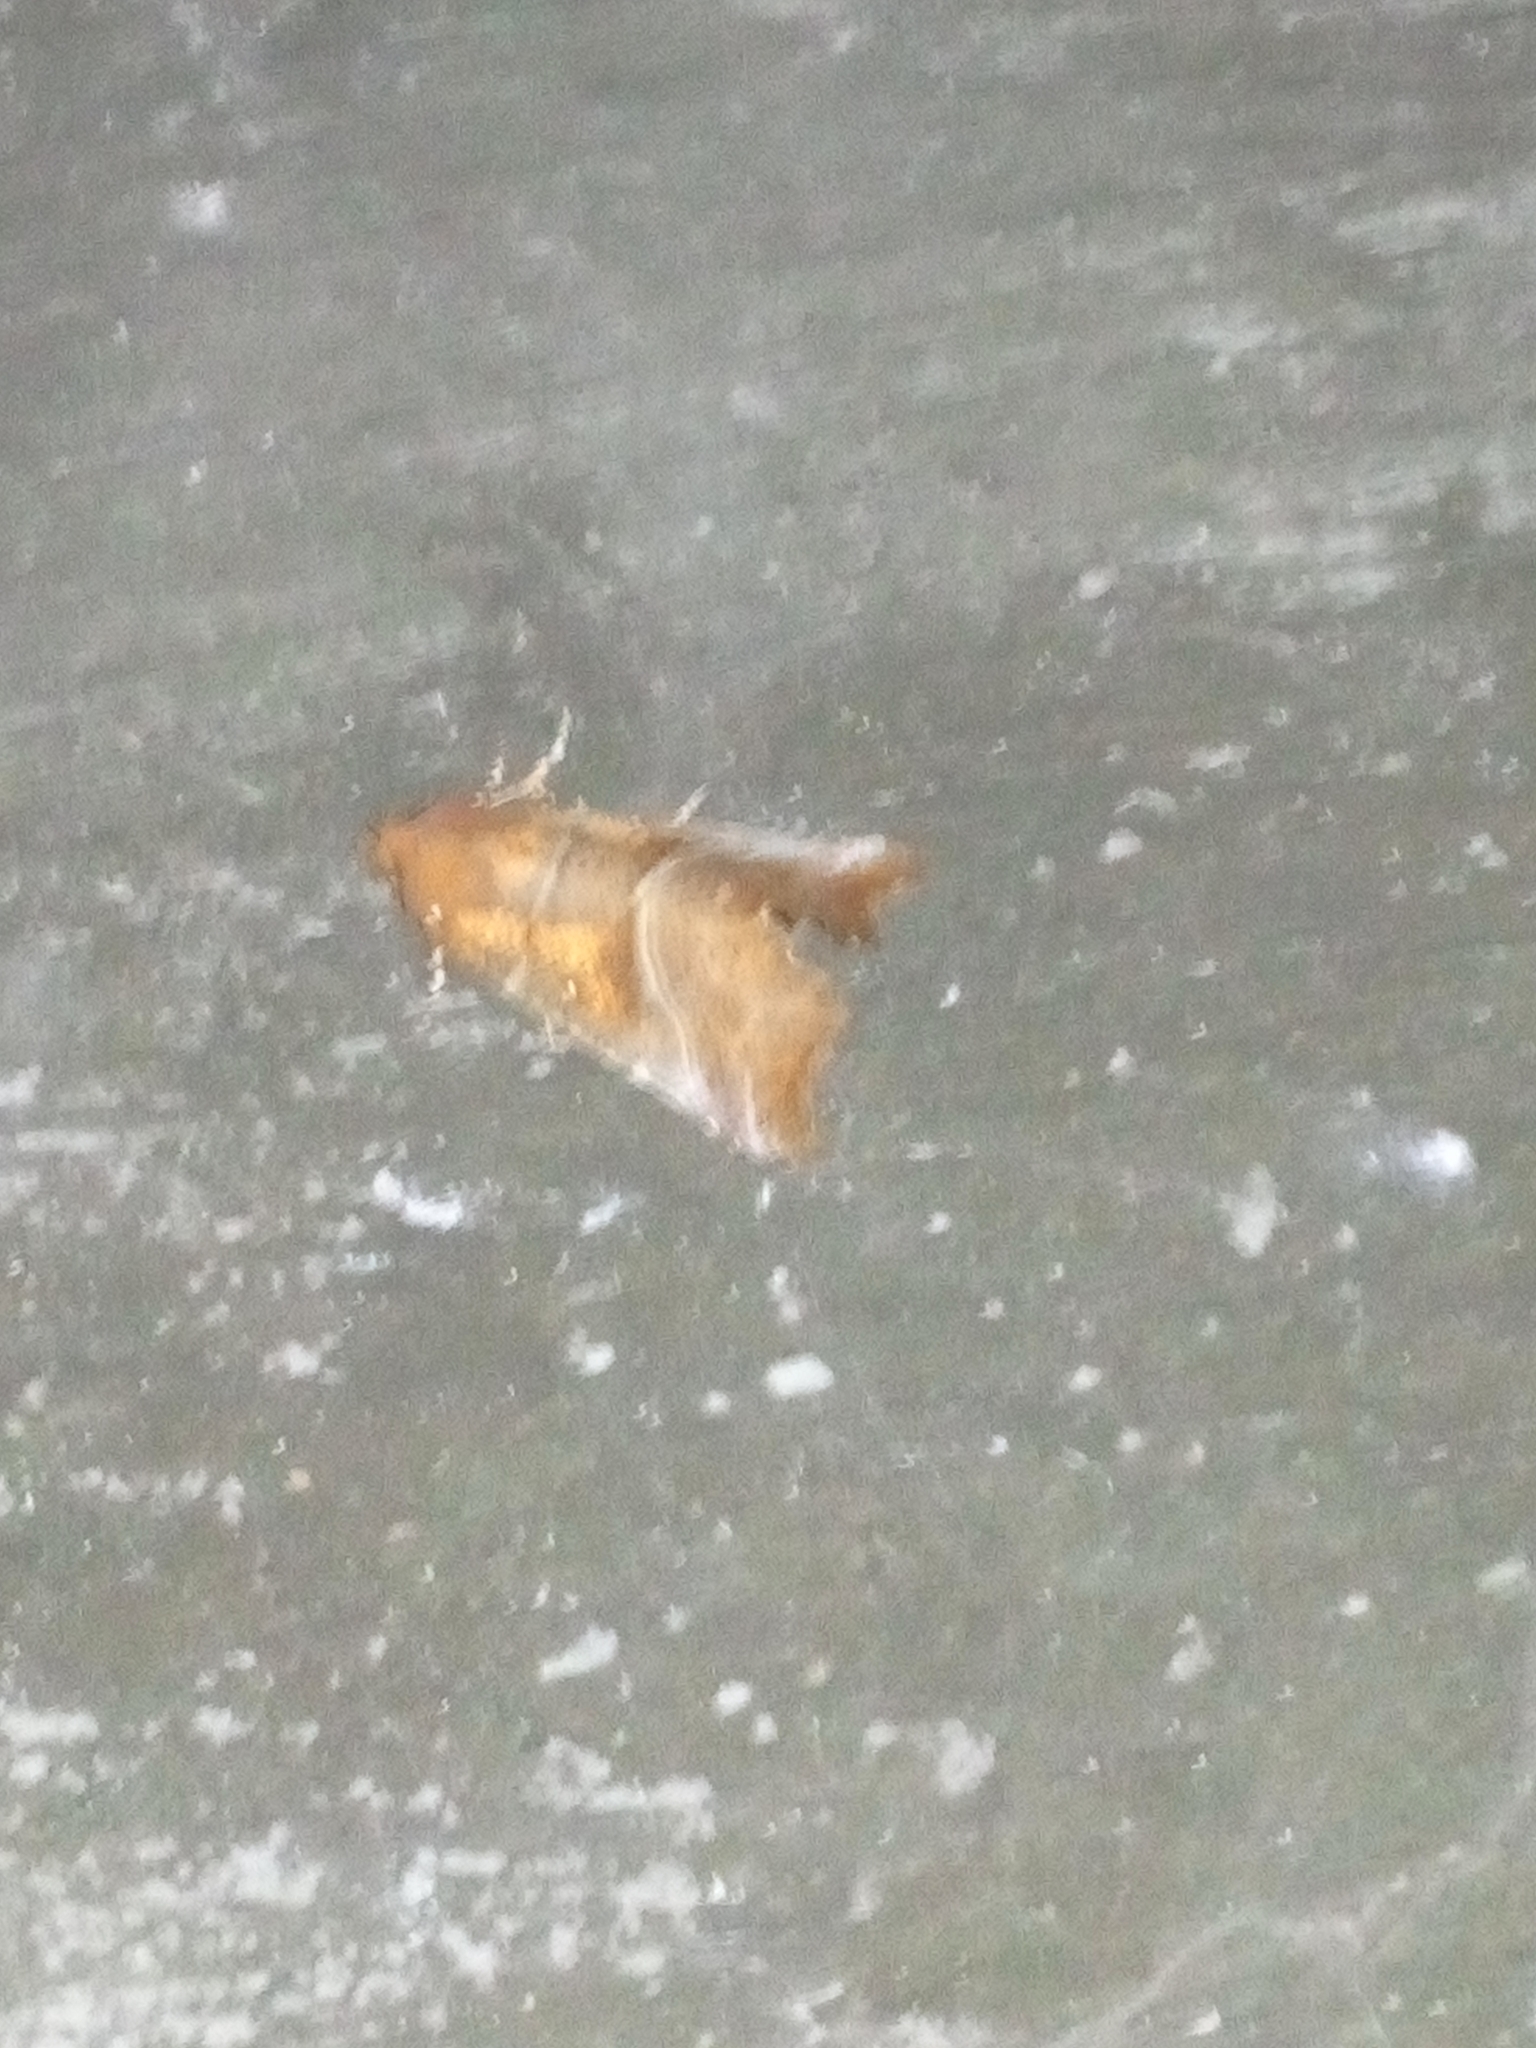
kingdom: Animalia
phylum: Arthropoda
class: Insecta
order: Lepidoptera
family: Erebidae
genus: Scoliopteryx
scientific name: Scoliopteryx libatrix
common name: Herald
